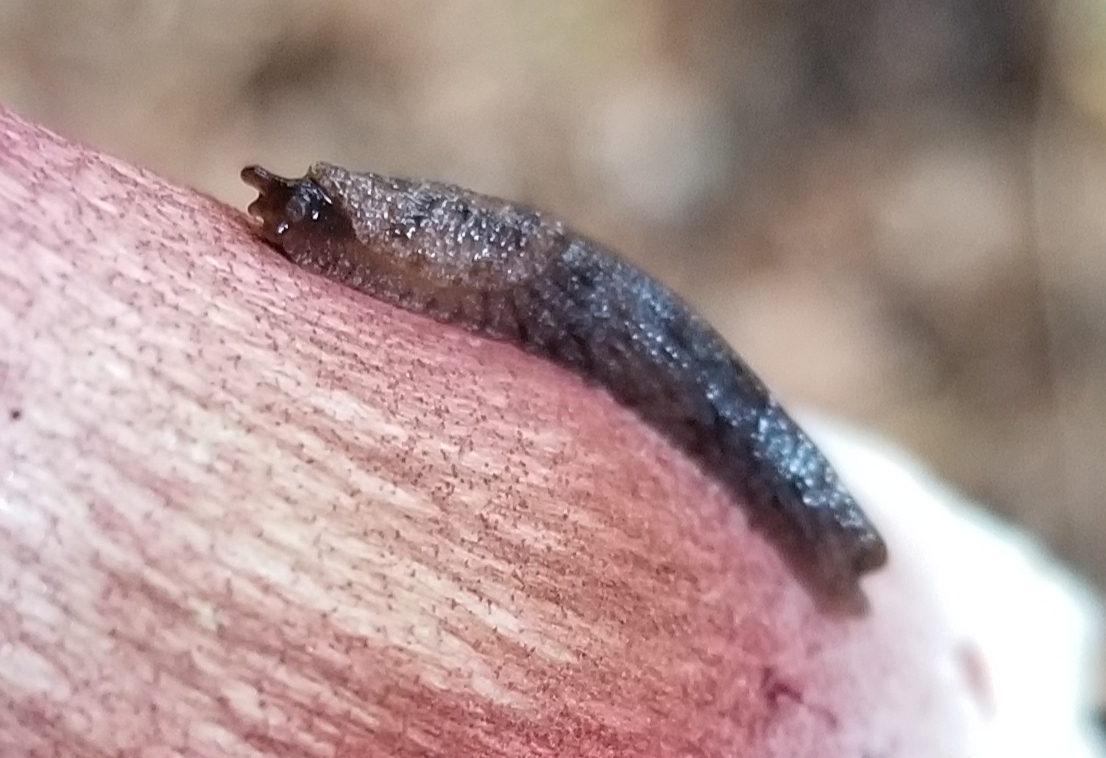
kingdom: Animalia
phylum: Mollusca
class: Gastropoda
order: Stylommatophora
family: Ariolimacidae
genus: Hesperarion
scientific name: Hesperarion niger
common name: Black western slug
